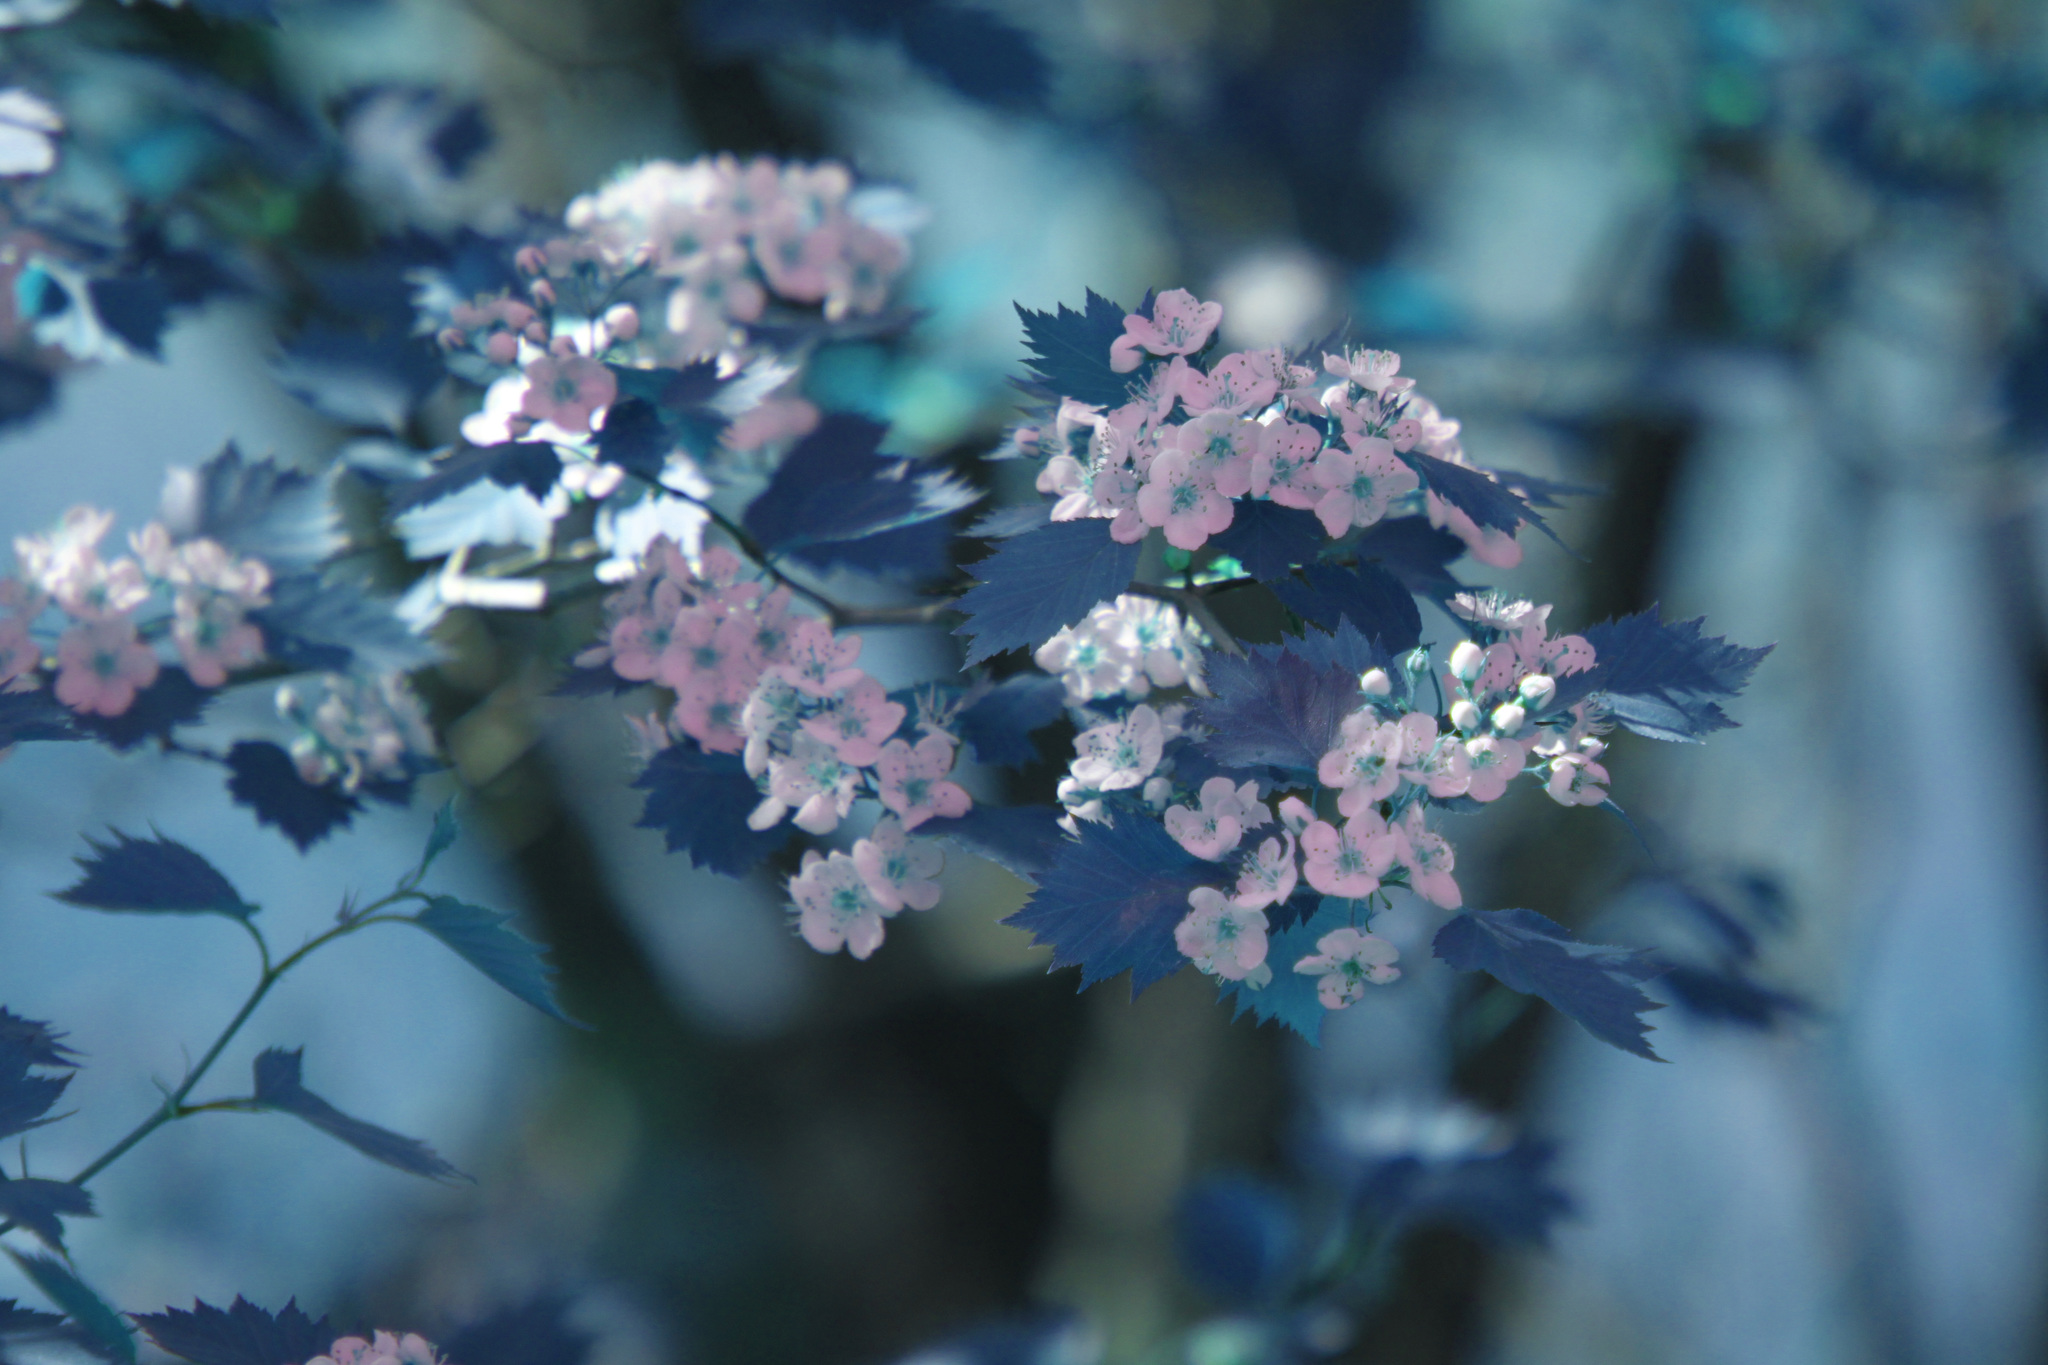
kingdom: Plantae
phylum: Tracheophyta
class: Magnoliopsida
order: Rosales
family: Rosaceae
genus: Crataegus
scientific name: Crataegus flabellata
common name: Bosc's hawthorn
